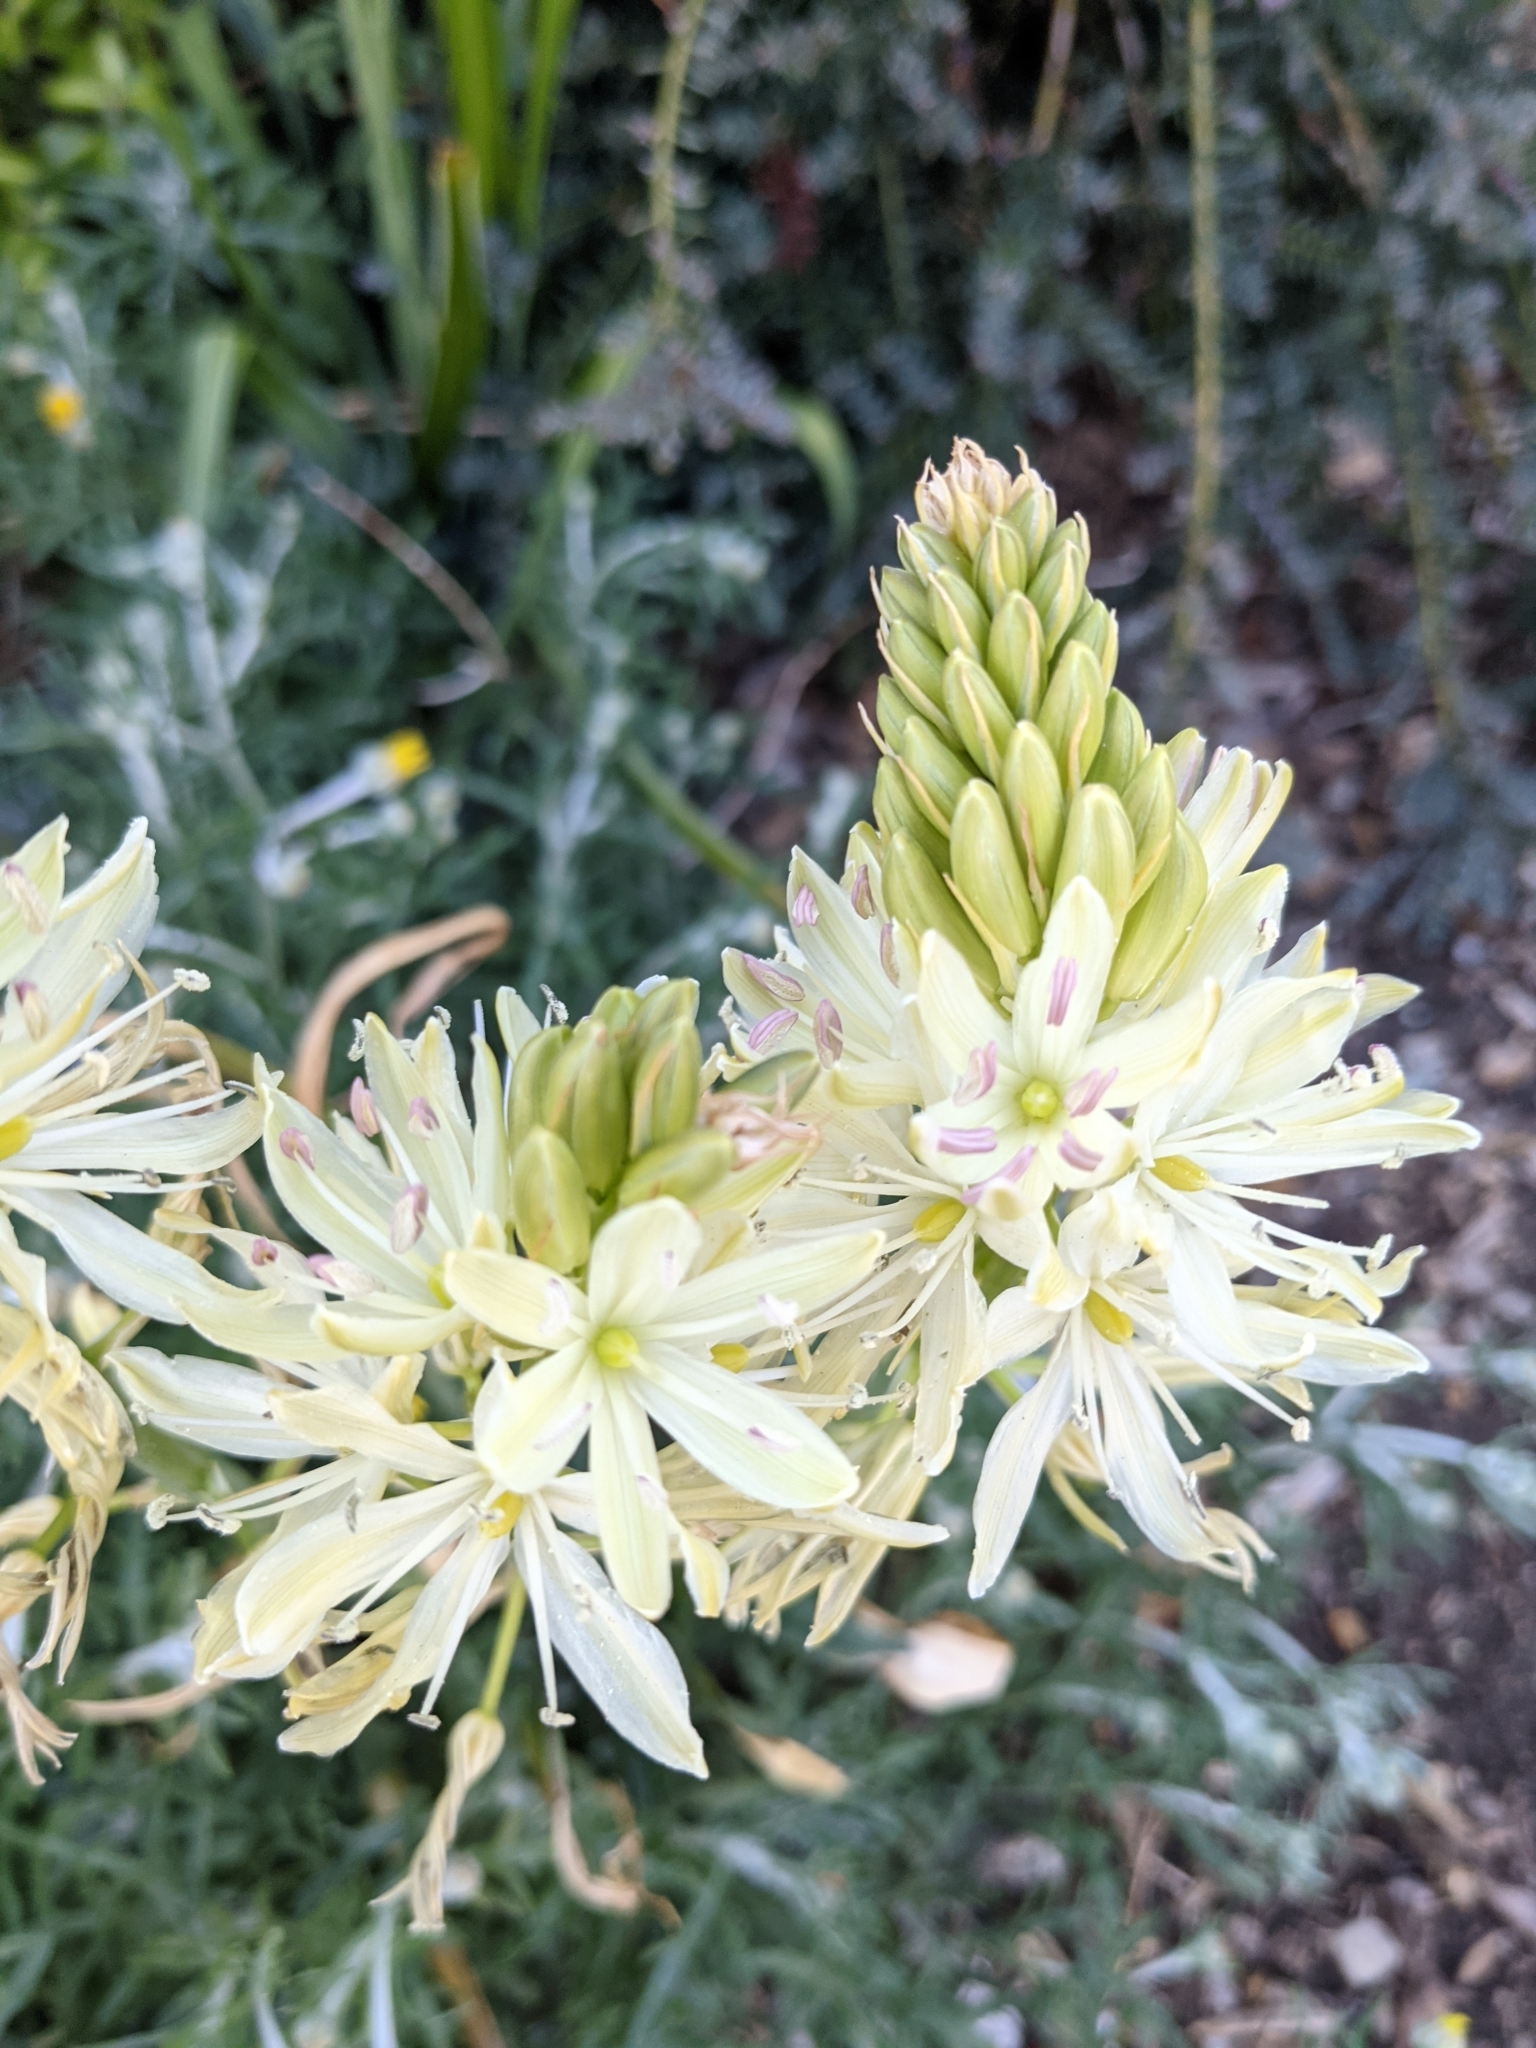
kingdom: Plantae
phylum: Tracheophyta
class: Liliopsida
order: Asparagales
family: Asparagaceae
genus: Camassia
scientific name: Camassia leichtlinii
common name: Leichtlin's camas
